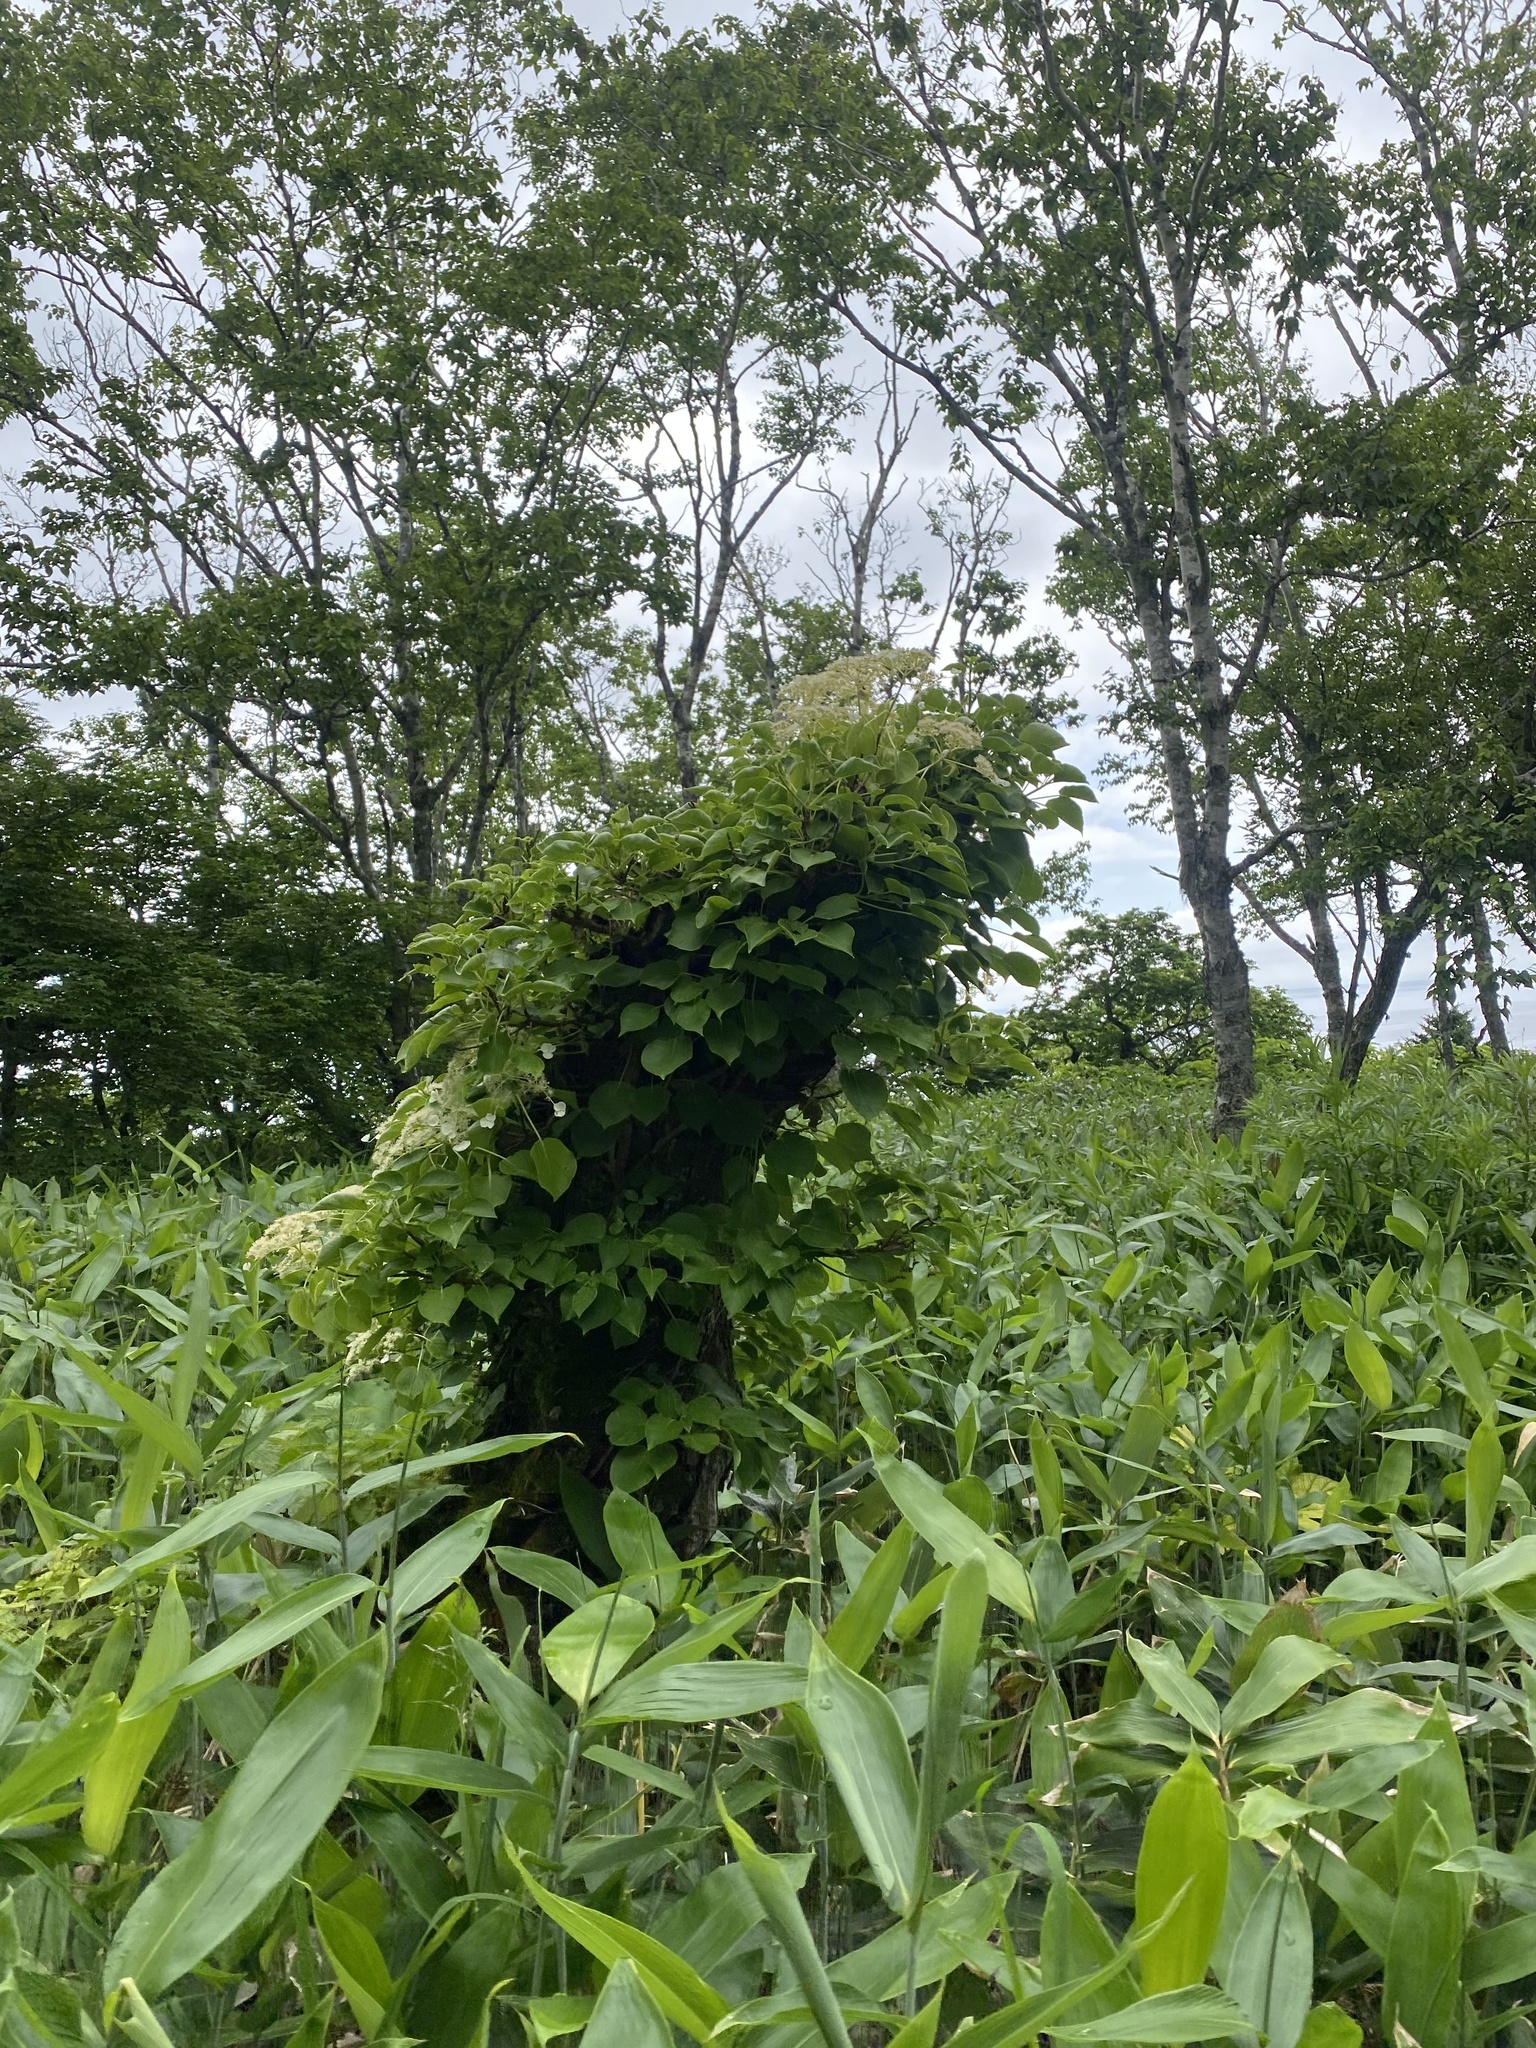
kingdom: Plantae
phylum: Tracheophyta
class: Magnoliopsida
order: Cornales
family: Hydrangeaceae
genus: Hydrangea
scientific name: Hydrangea petiolaris
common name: Japanese climbing hydrangea
